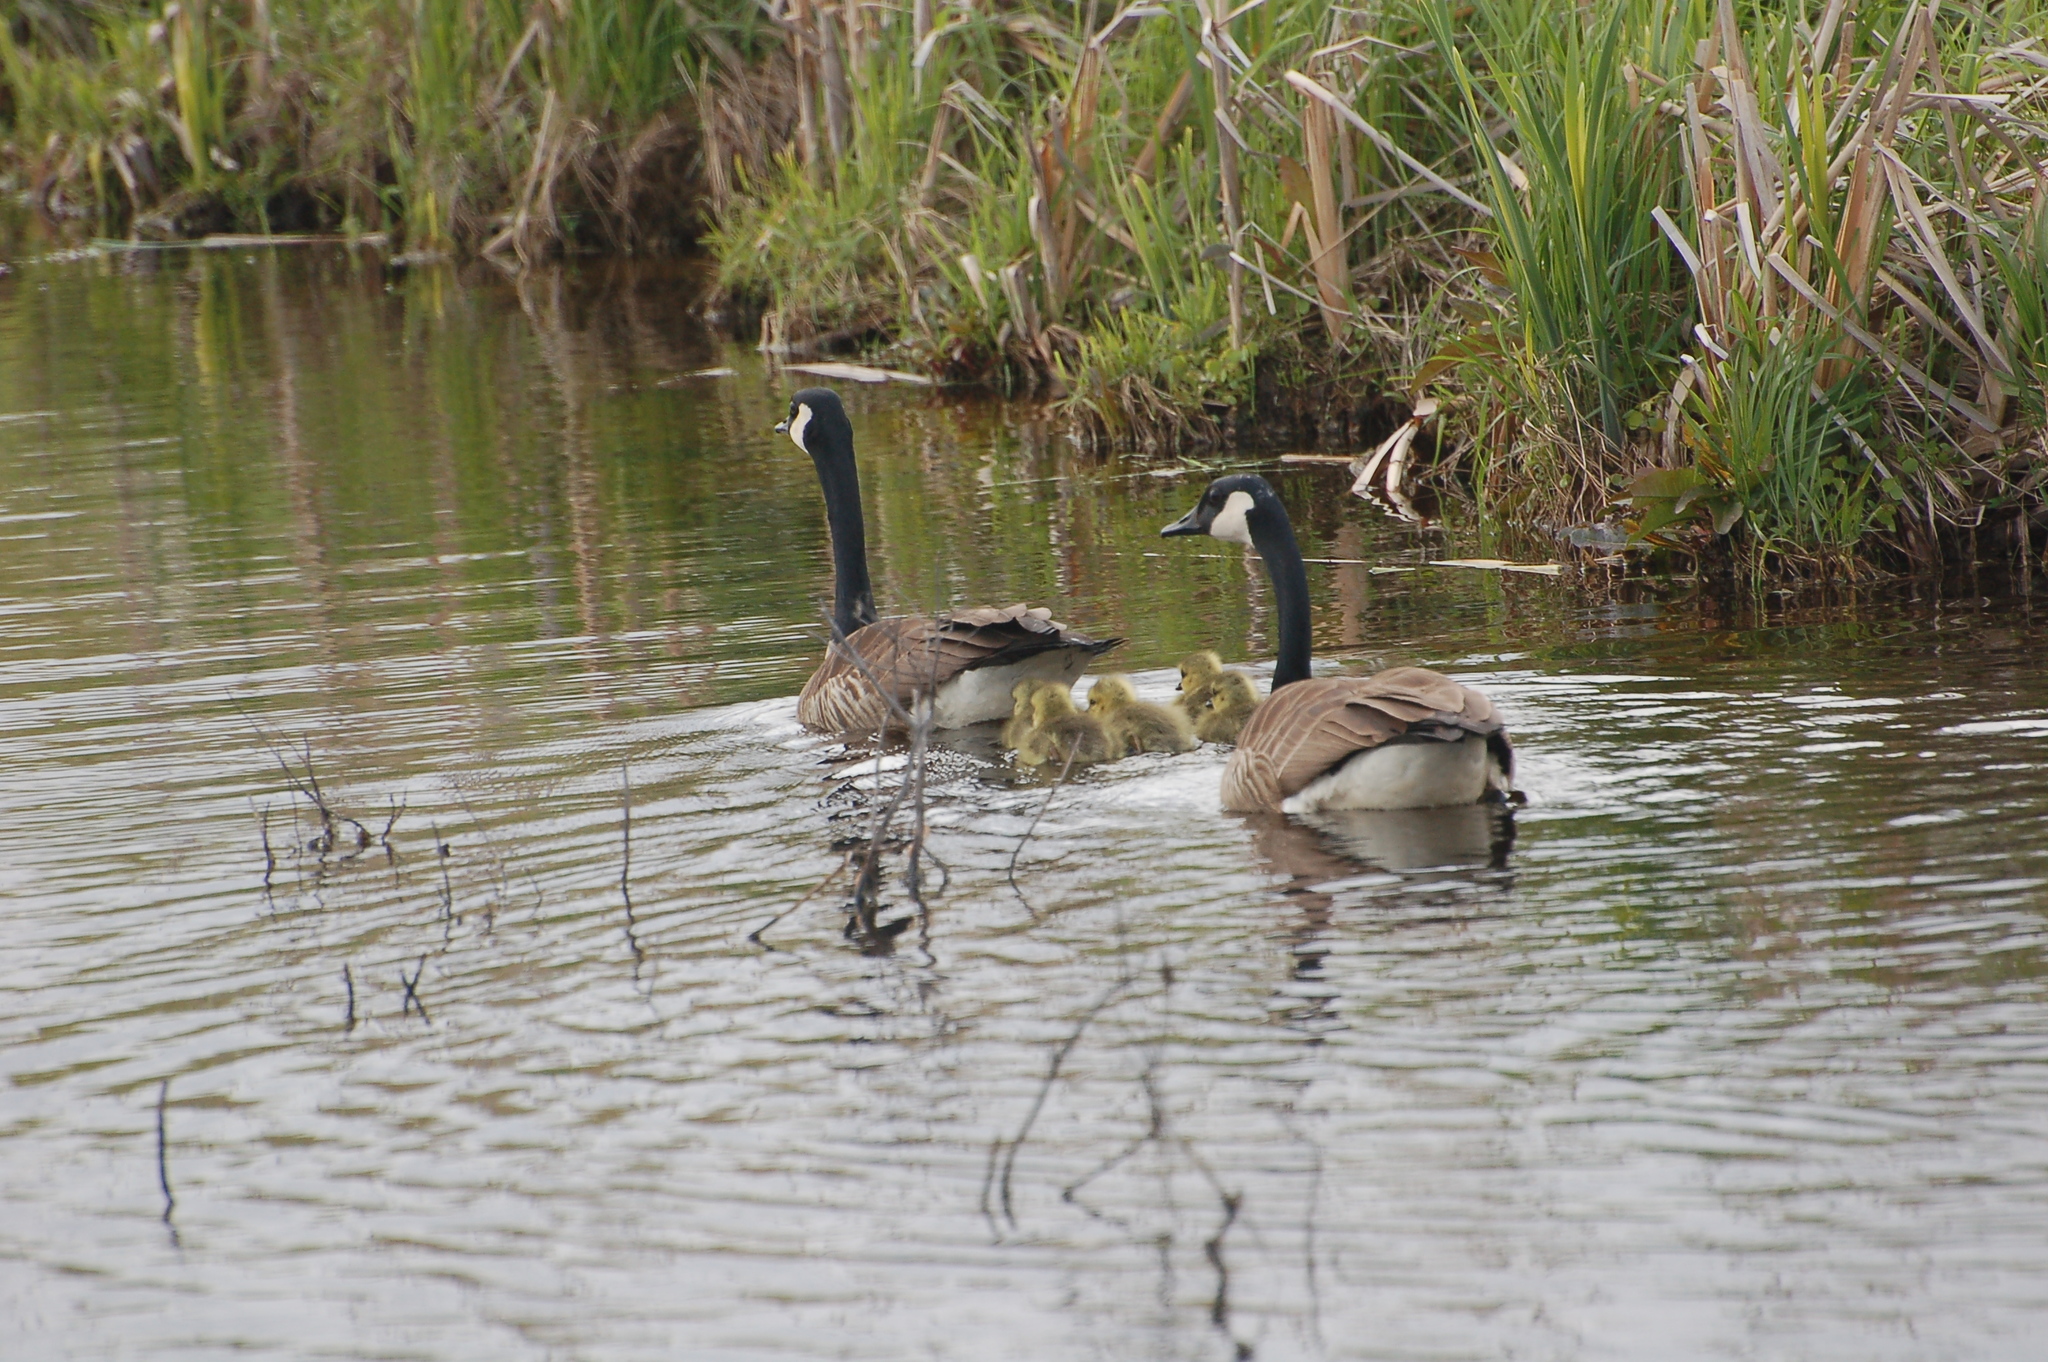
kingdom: Animalia
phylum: Chordata
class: Aves
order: Anseriformes
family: Anatidae
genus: Branta
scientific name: Branta canadensis
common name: Canada goose
